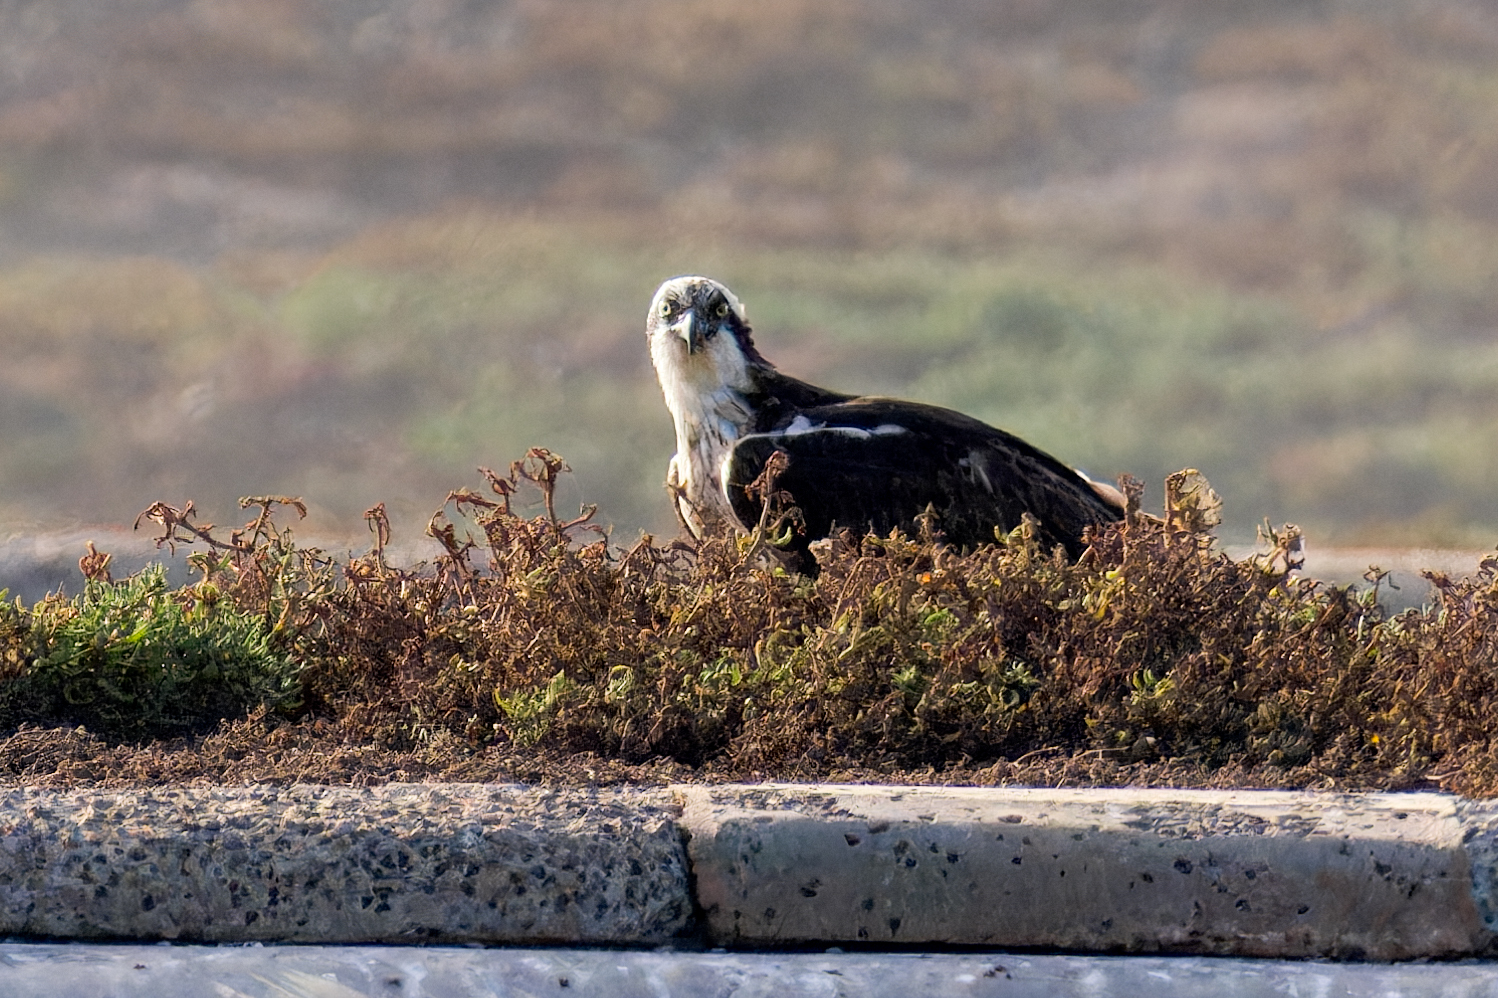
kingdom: Animalia
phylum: Chordata
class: Aves
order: Accipitriformes
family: Pandionidae
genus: Pandion
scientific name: Pandion haliaetus
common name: Osprey
